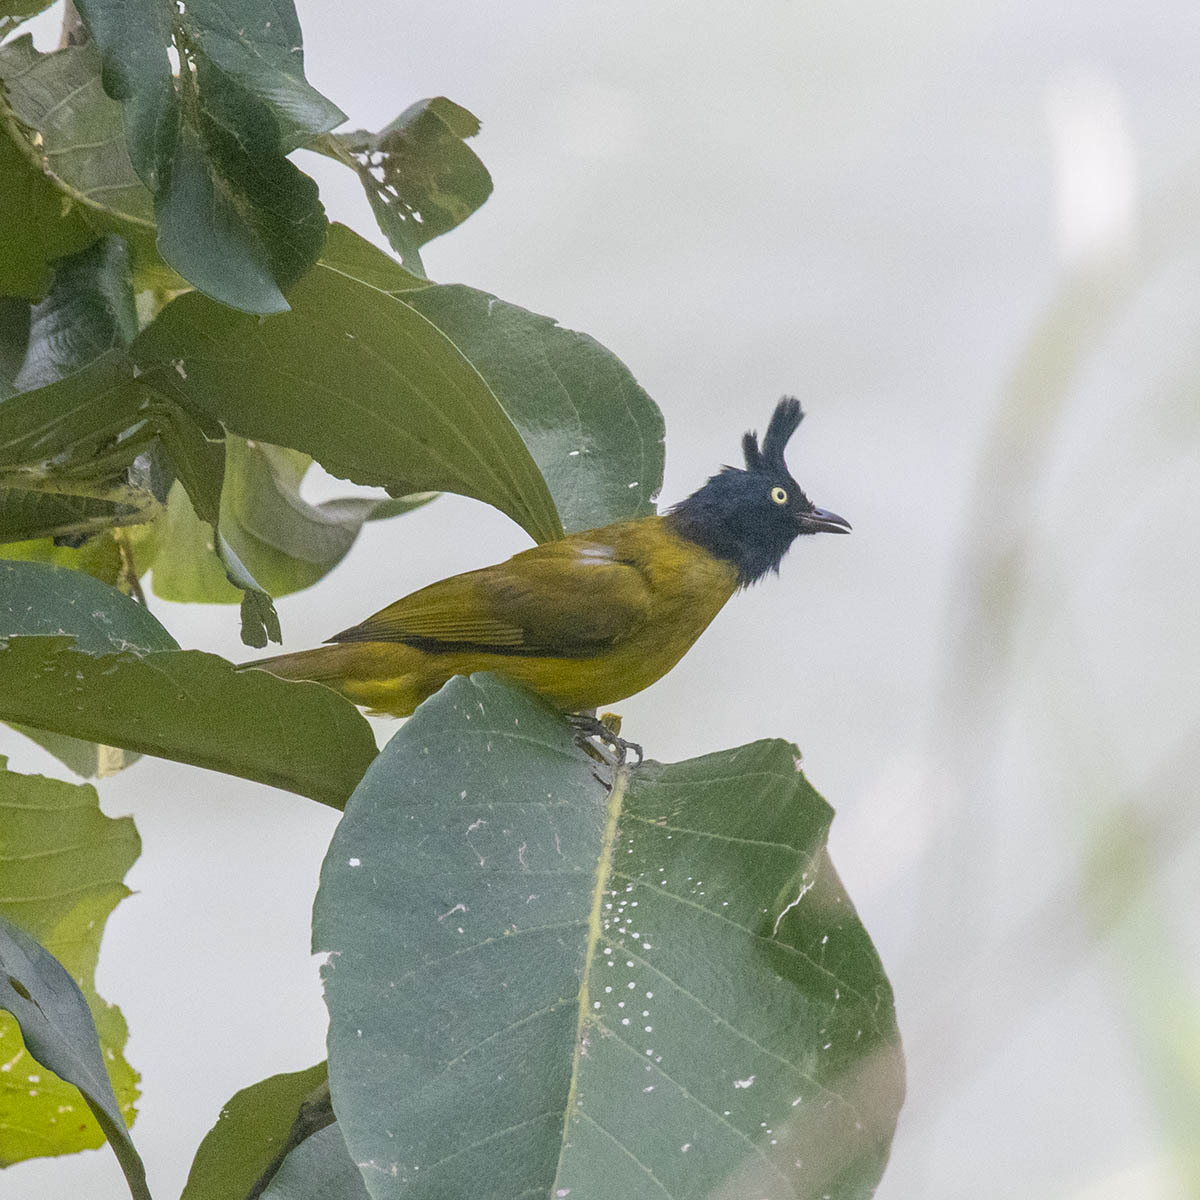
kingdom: Animalia
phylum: Chordata
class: Aves
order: Passeriformes
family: Pycnonotidae
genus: Pycnonotus
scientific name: Pycnonotus flaviventris
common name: Black-crested bulbul
